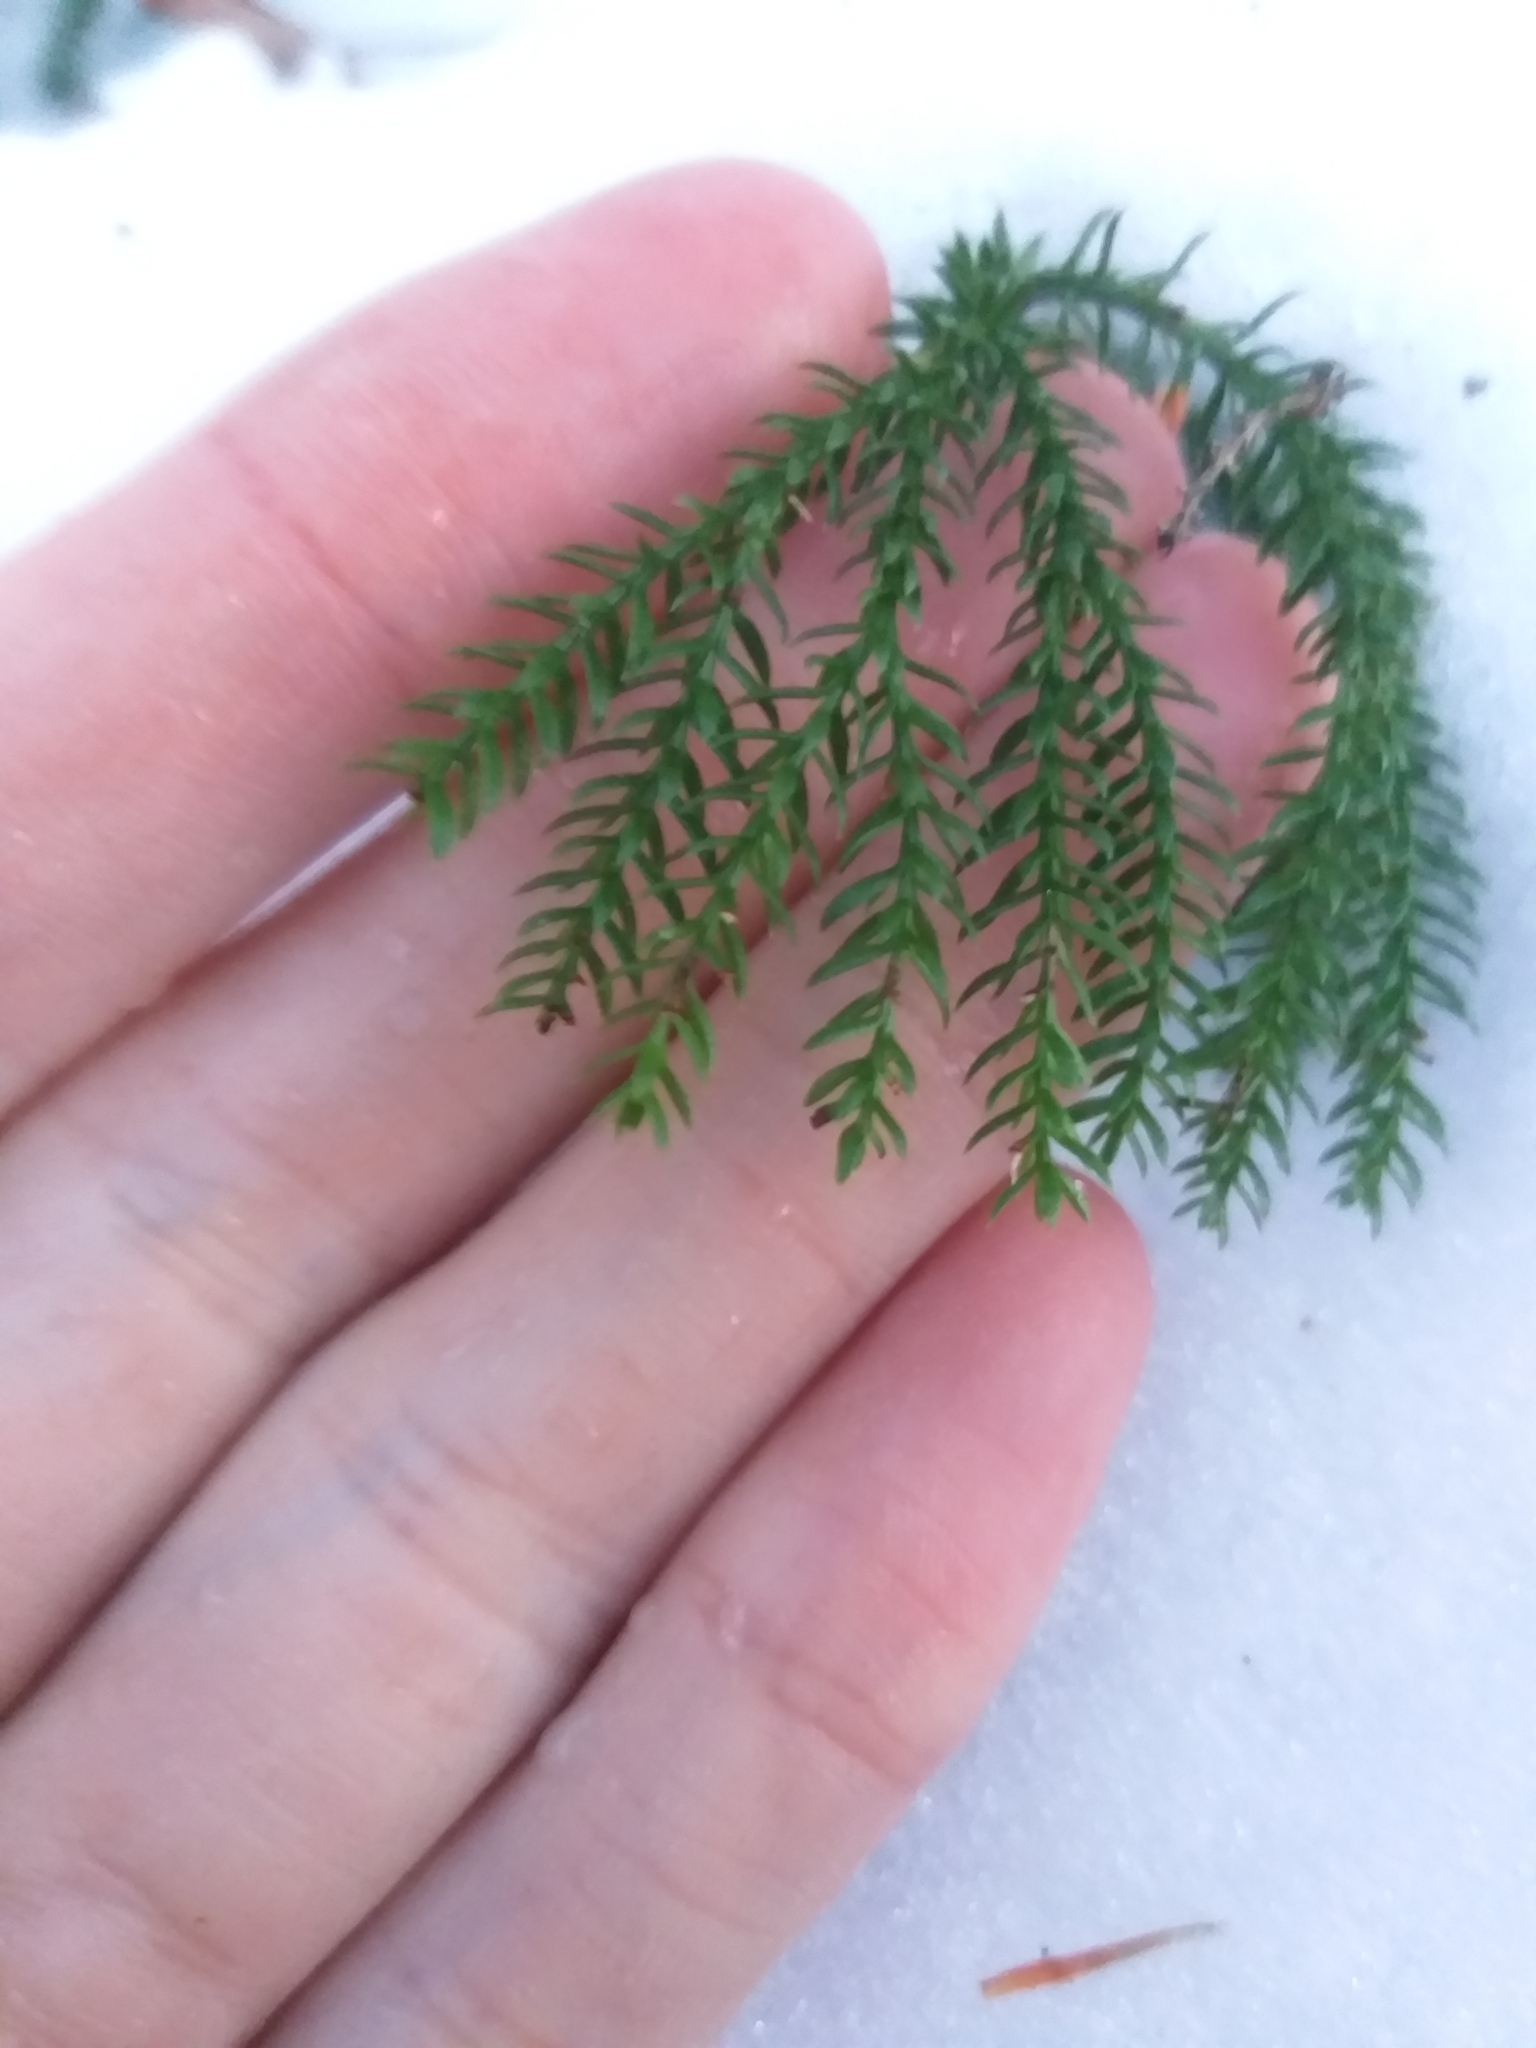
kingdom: Plantae
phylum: Tracheophyta
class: Lycopodiopsida
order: Lycopodiales
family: Lycopodiaceae
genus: Dendrolycopodium
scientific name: Dendrolycopodium dendroideum
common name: Northern tree-clubmoss
